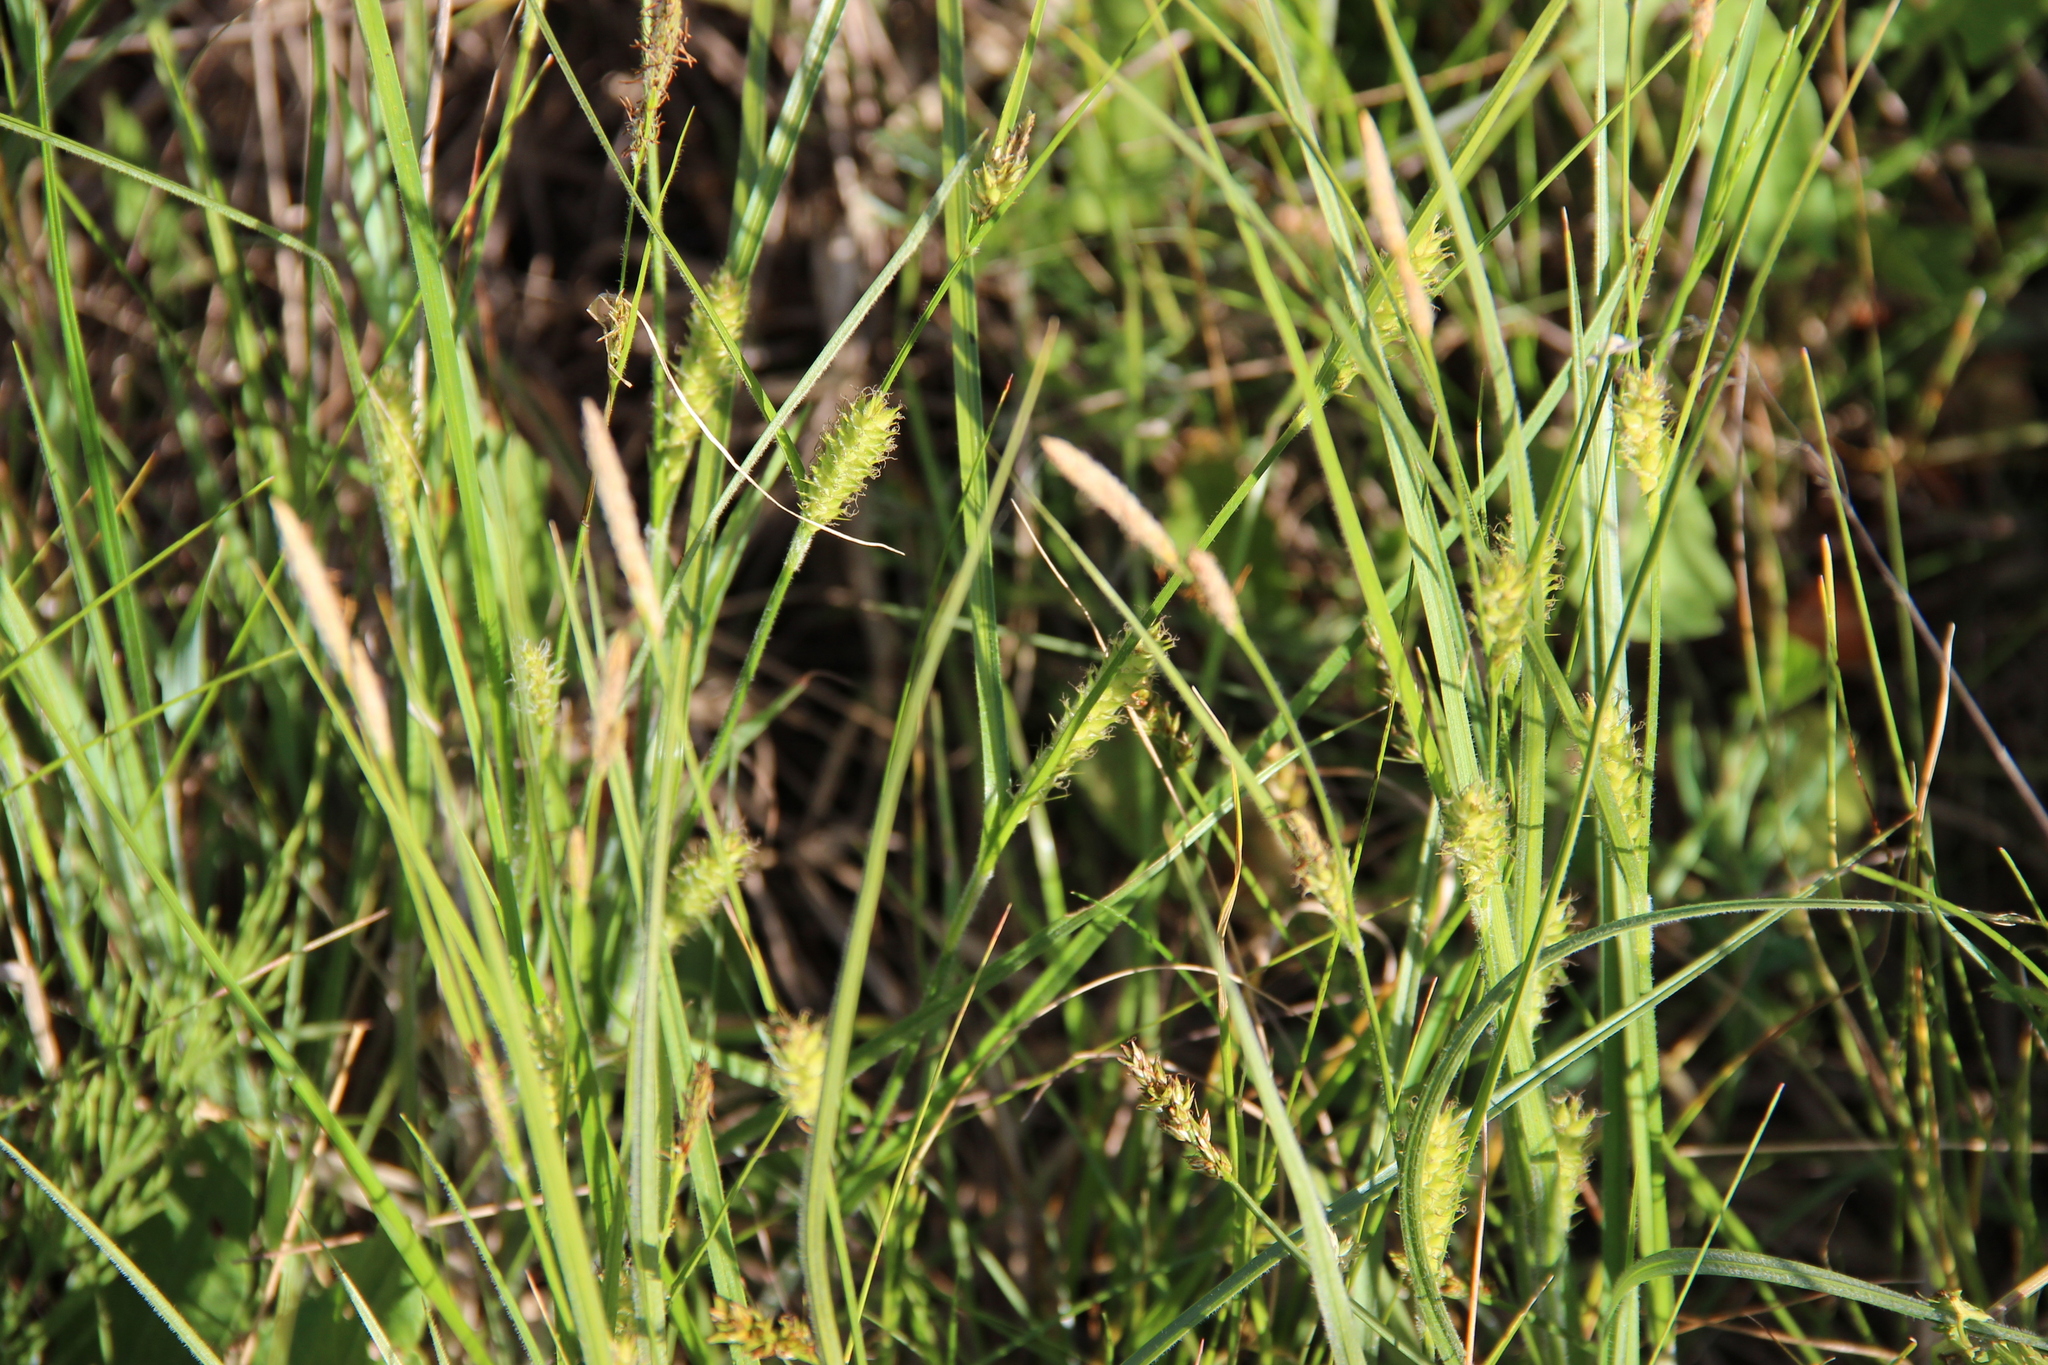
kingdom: Plantae
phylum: Tracheophyta
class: Liliopsida
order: Poales
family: Cyperaceae
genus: Carex
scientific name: Carex hirta
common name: Hairy sedge
